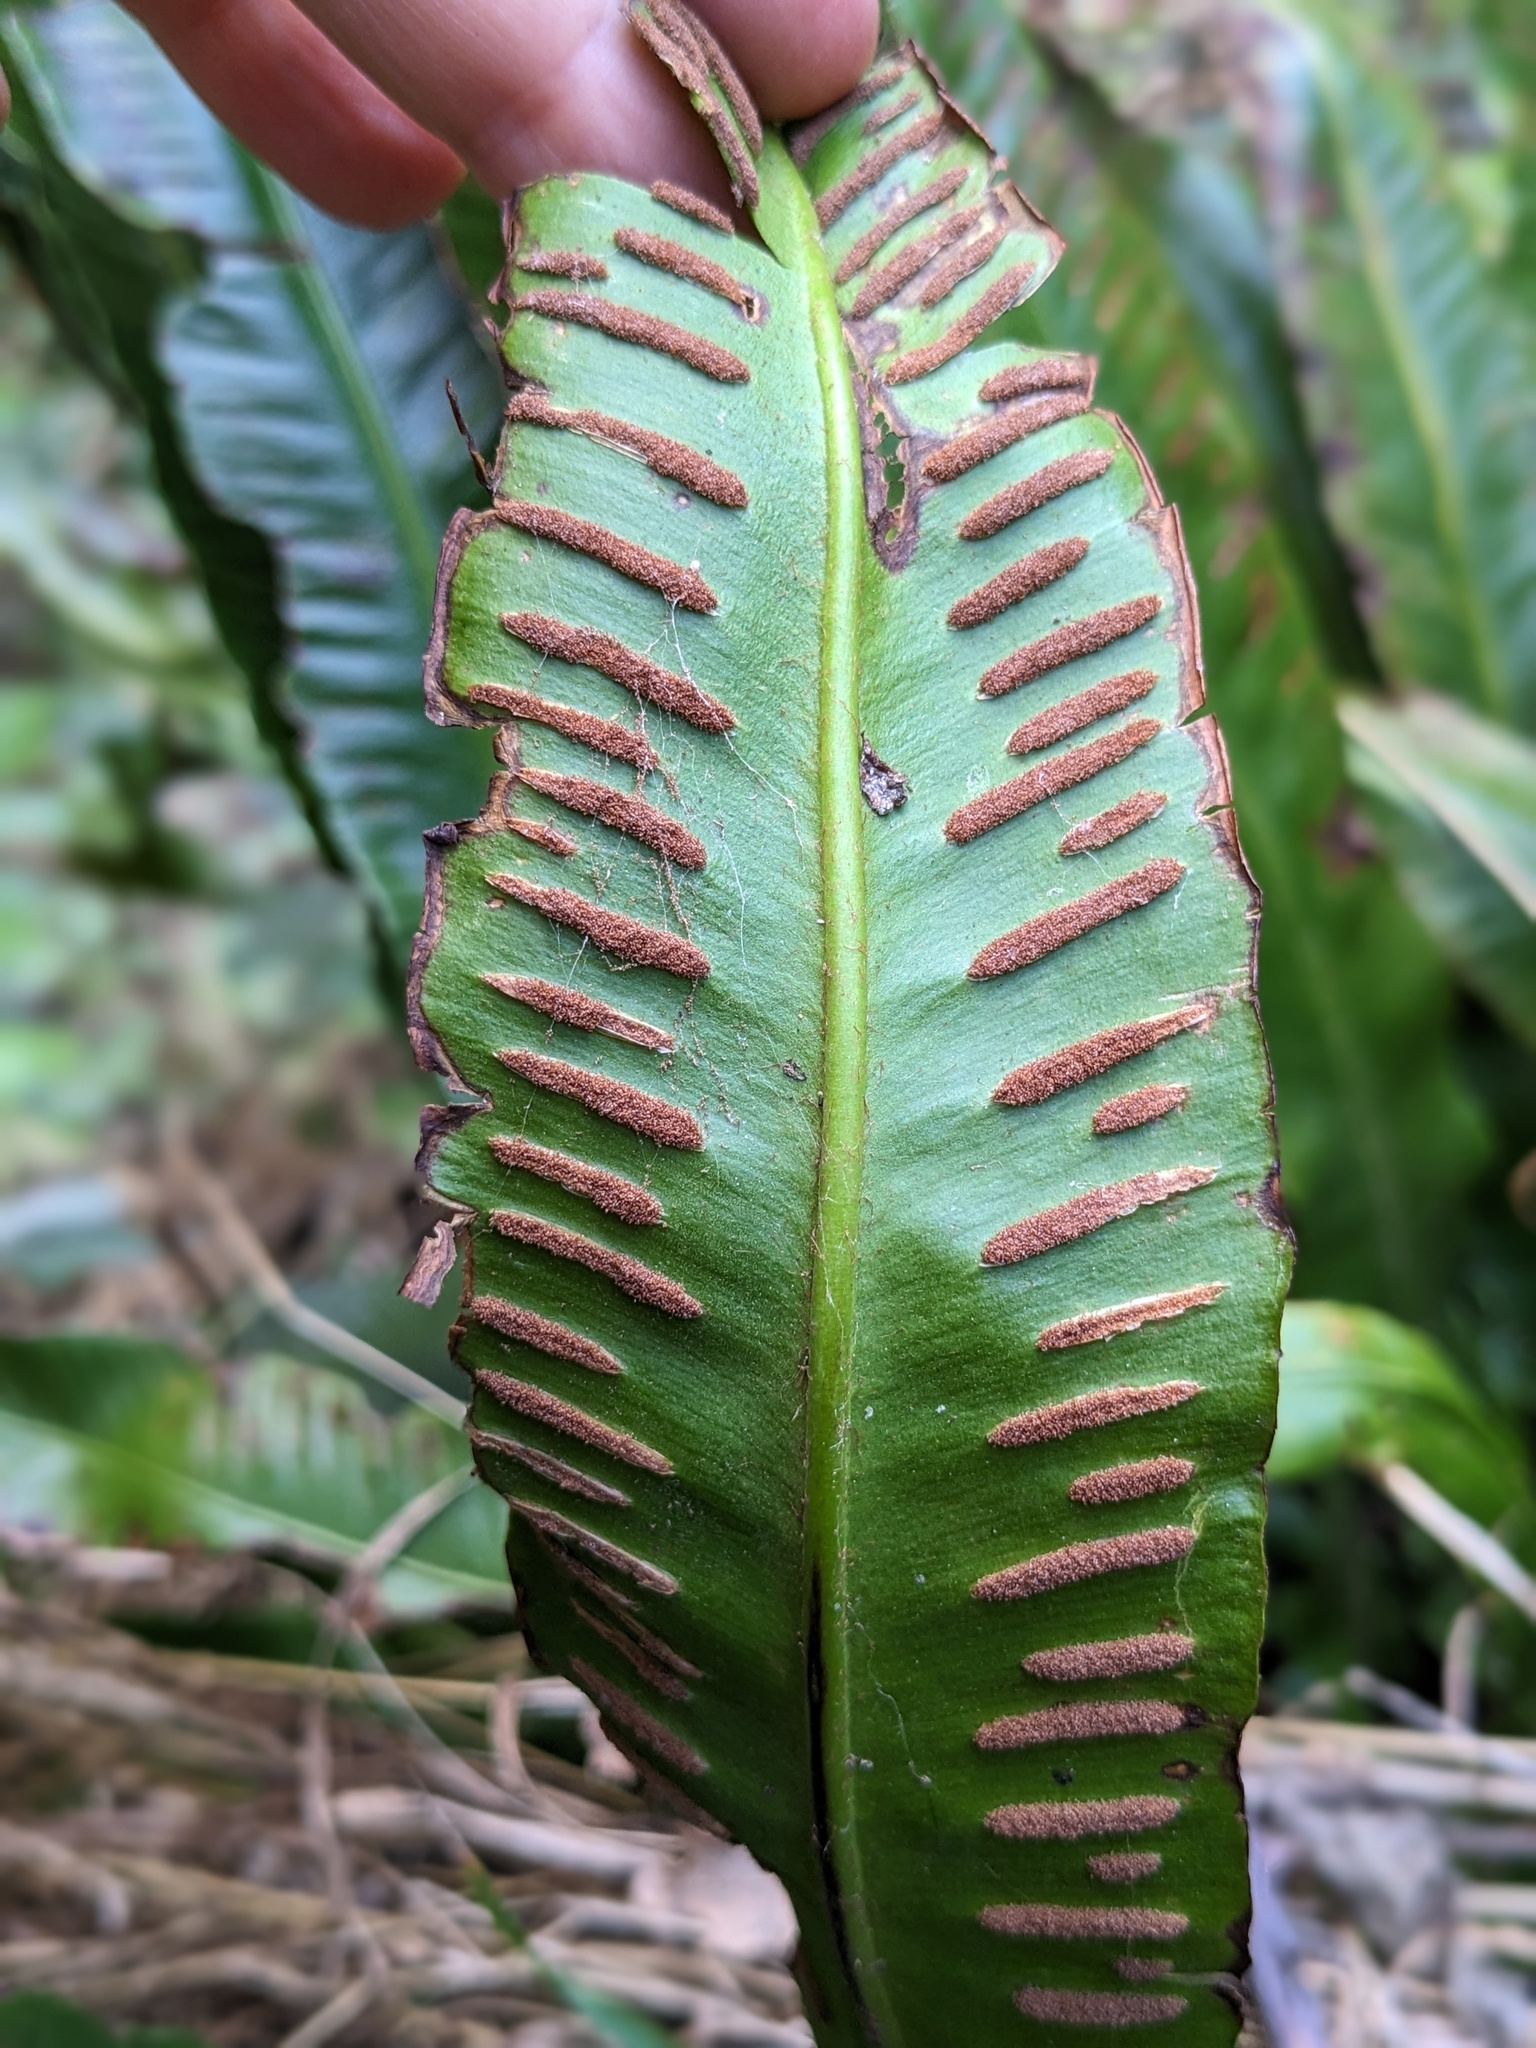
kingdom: Plantae
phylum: Tracheophyta
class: Polypodiopsida
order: Polypodiales
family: Aspleniaceae
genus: Asplenium
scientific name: Asplenium scolopendrium
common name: Hart's-tongue fern
